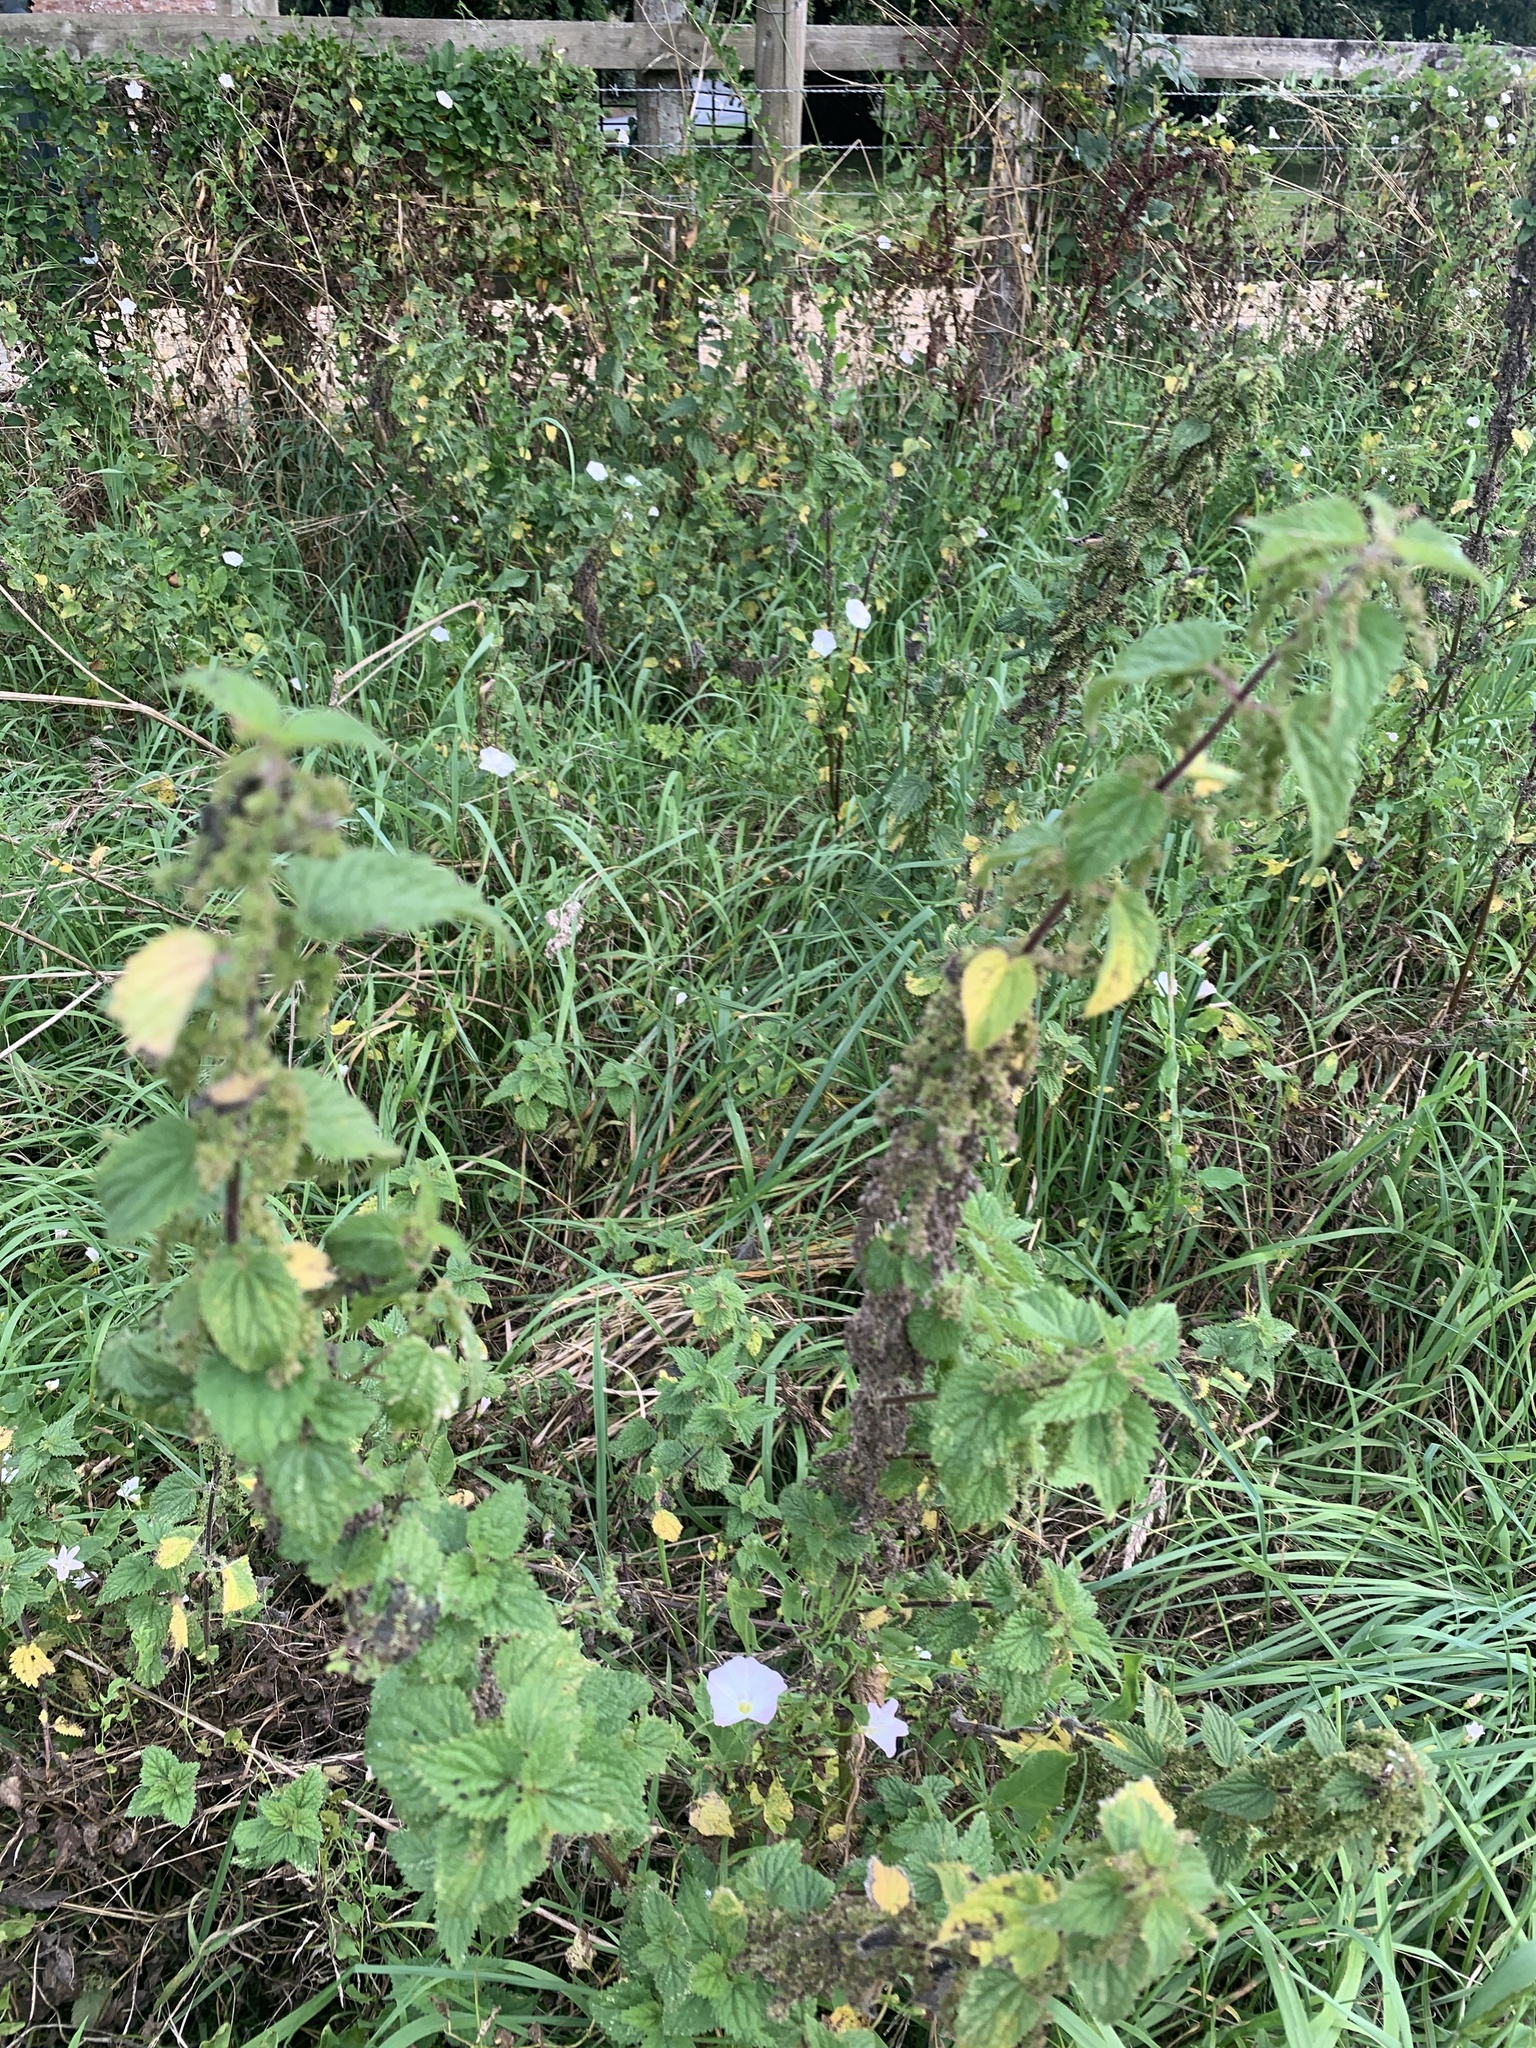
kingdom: Plantae
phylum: Tracheophyta
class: Magnoliopsida
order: Rosales
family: Urticaceae
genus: Urtica
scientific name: Urtica dioica
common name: Common nettle
